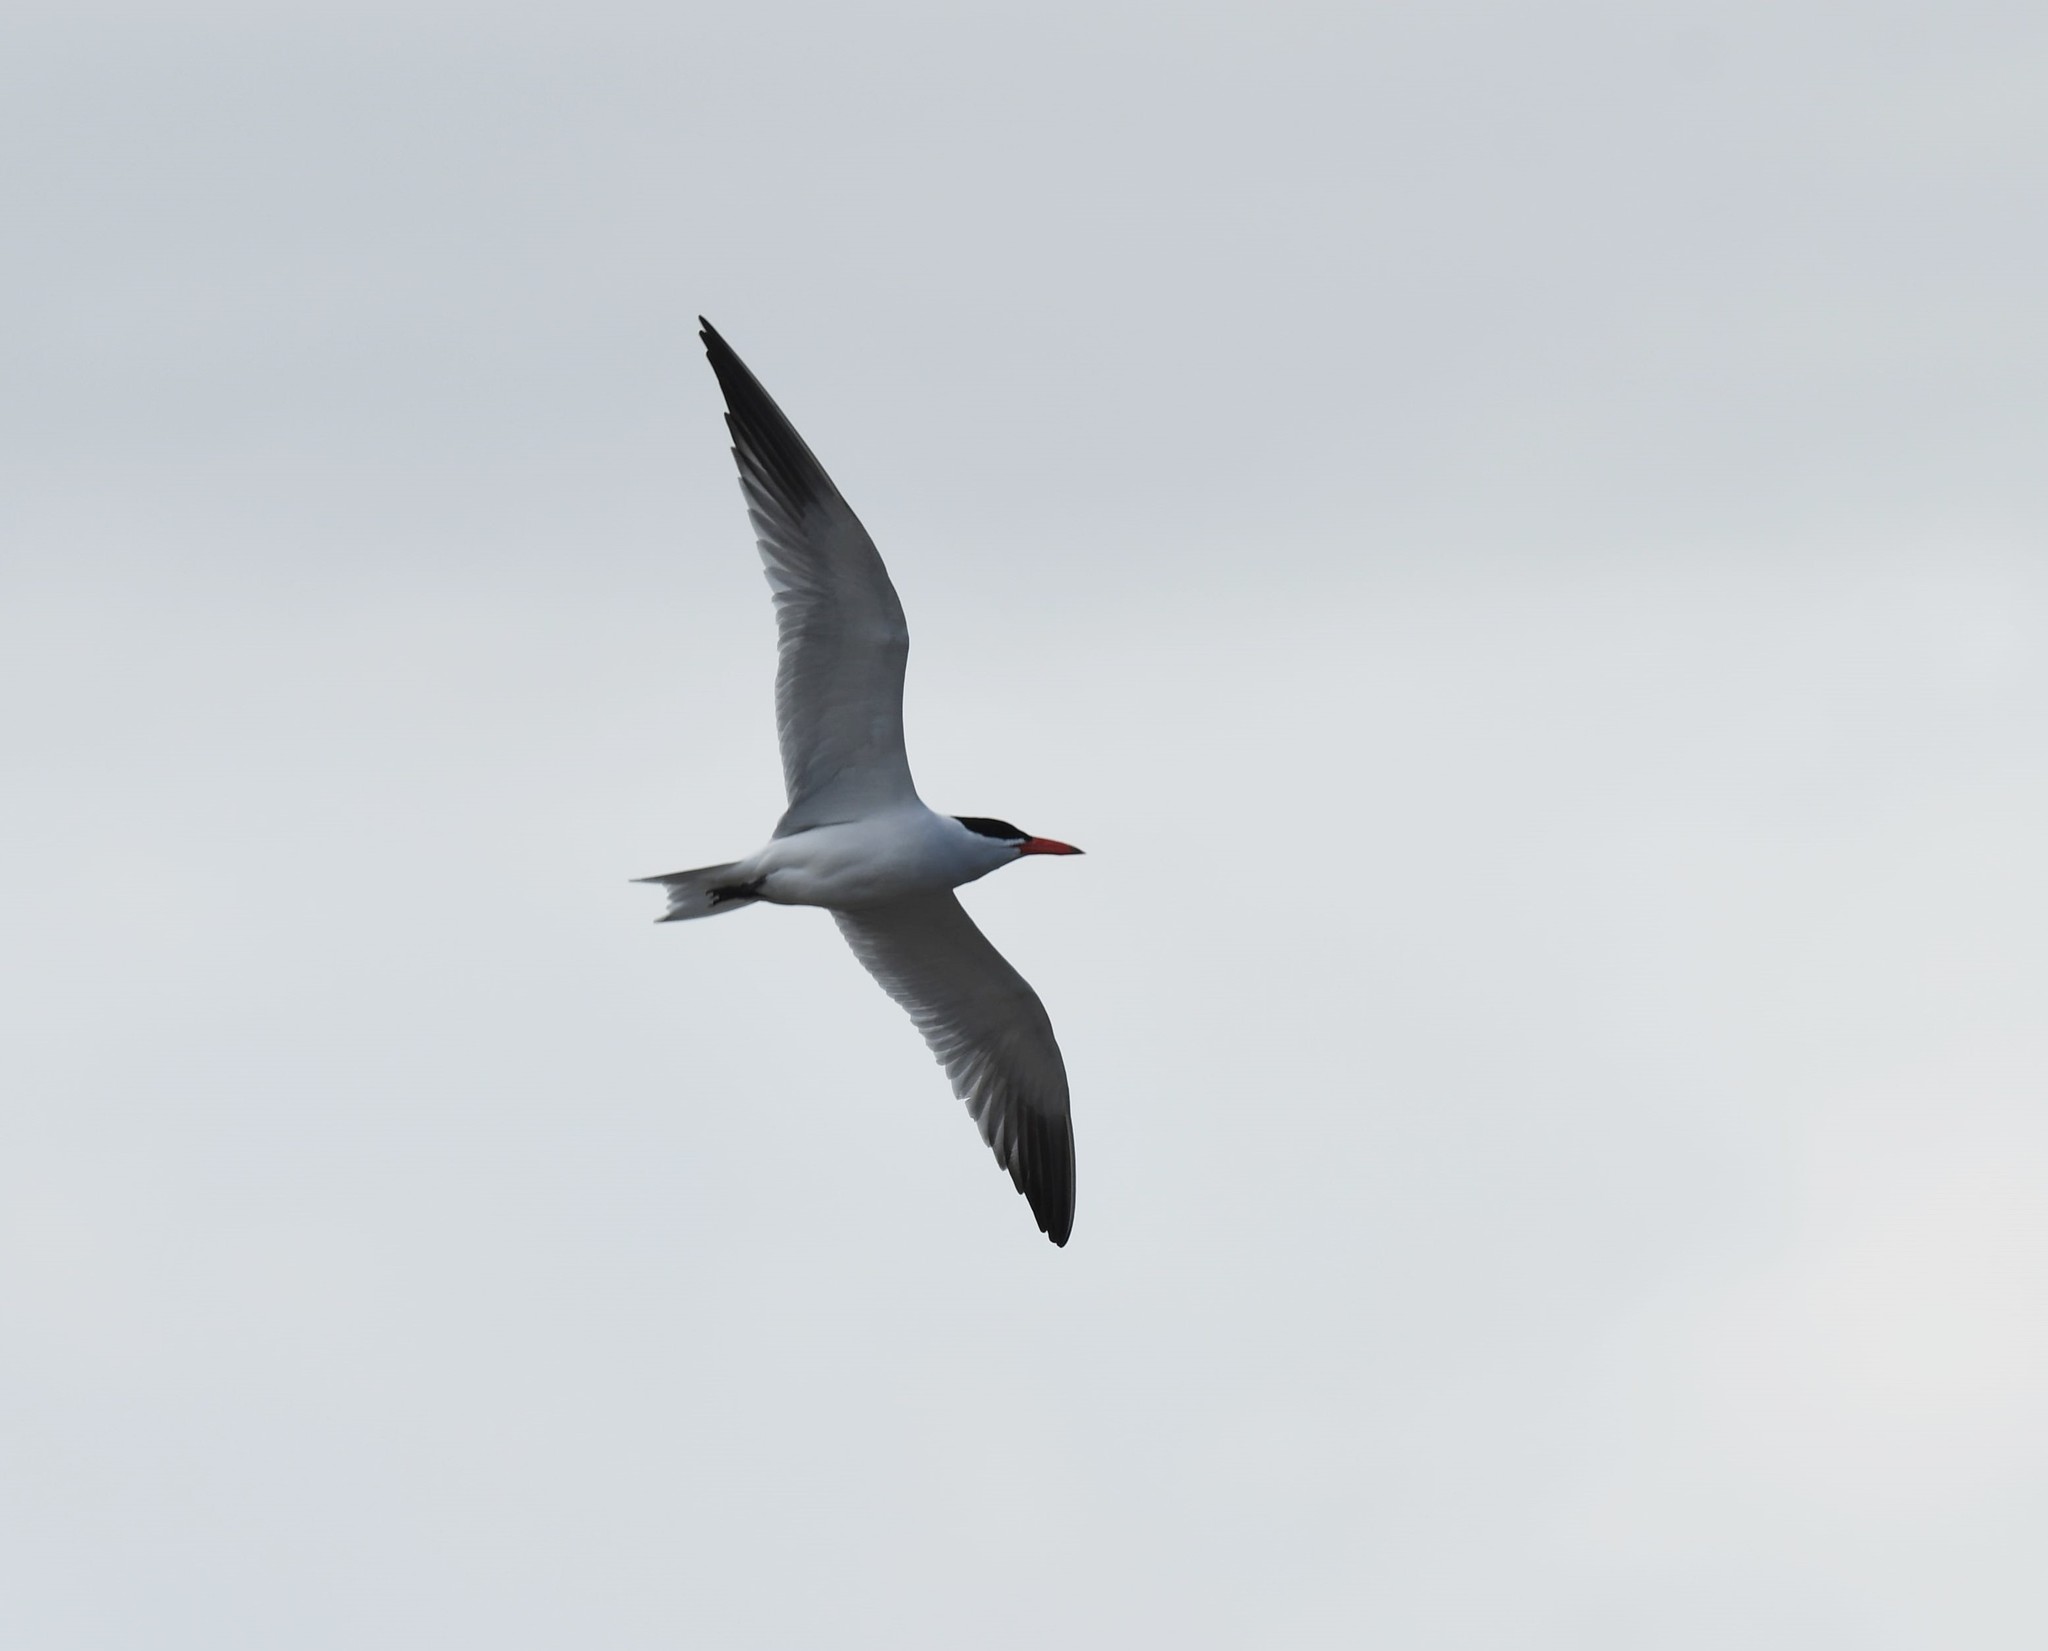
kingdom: Animalia
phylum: Chordata
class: Aves
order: Charadriiformes
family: Laridae
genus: Hydroprogne
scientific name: Hydroprogne caspia
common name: Caspian tern
